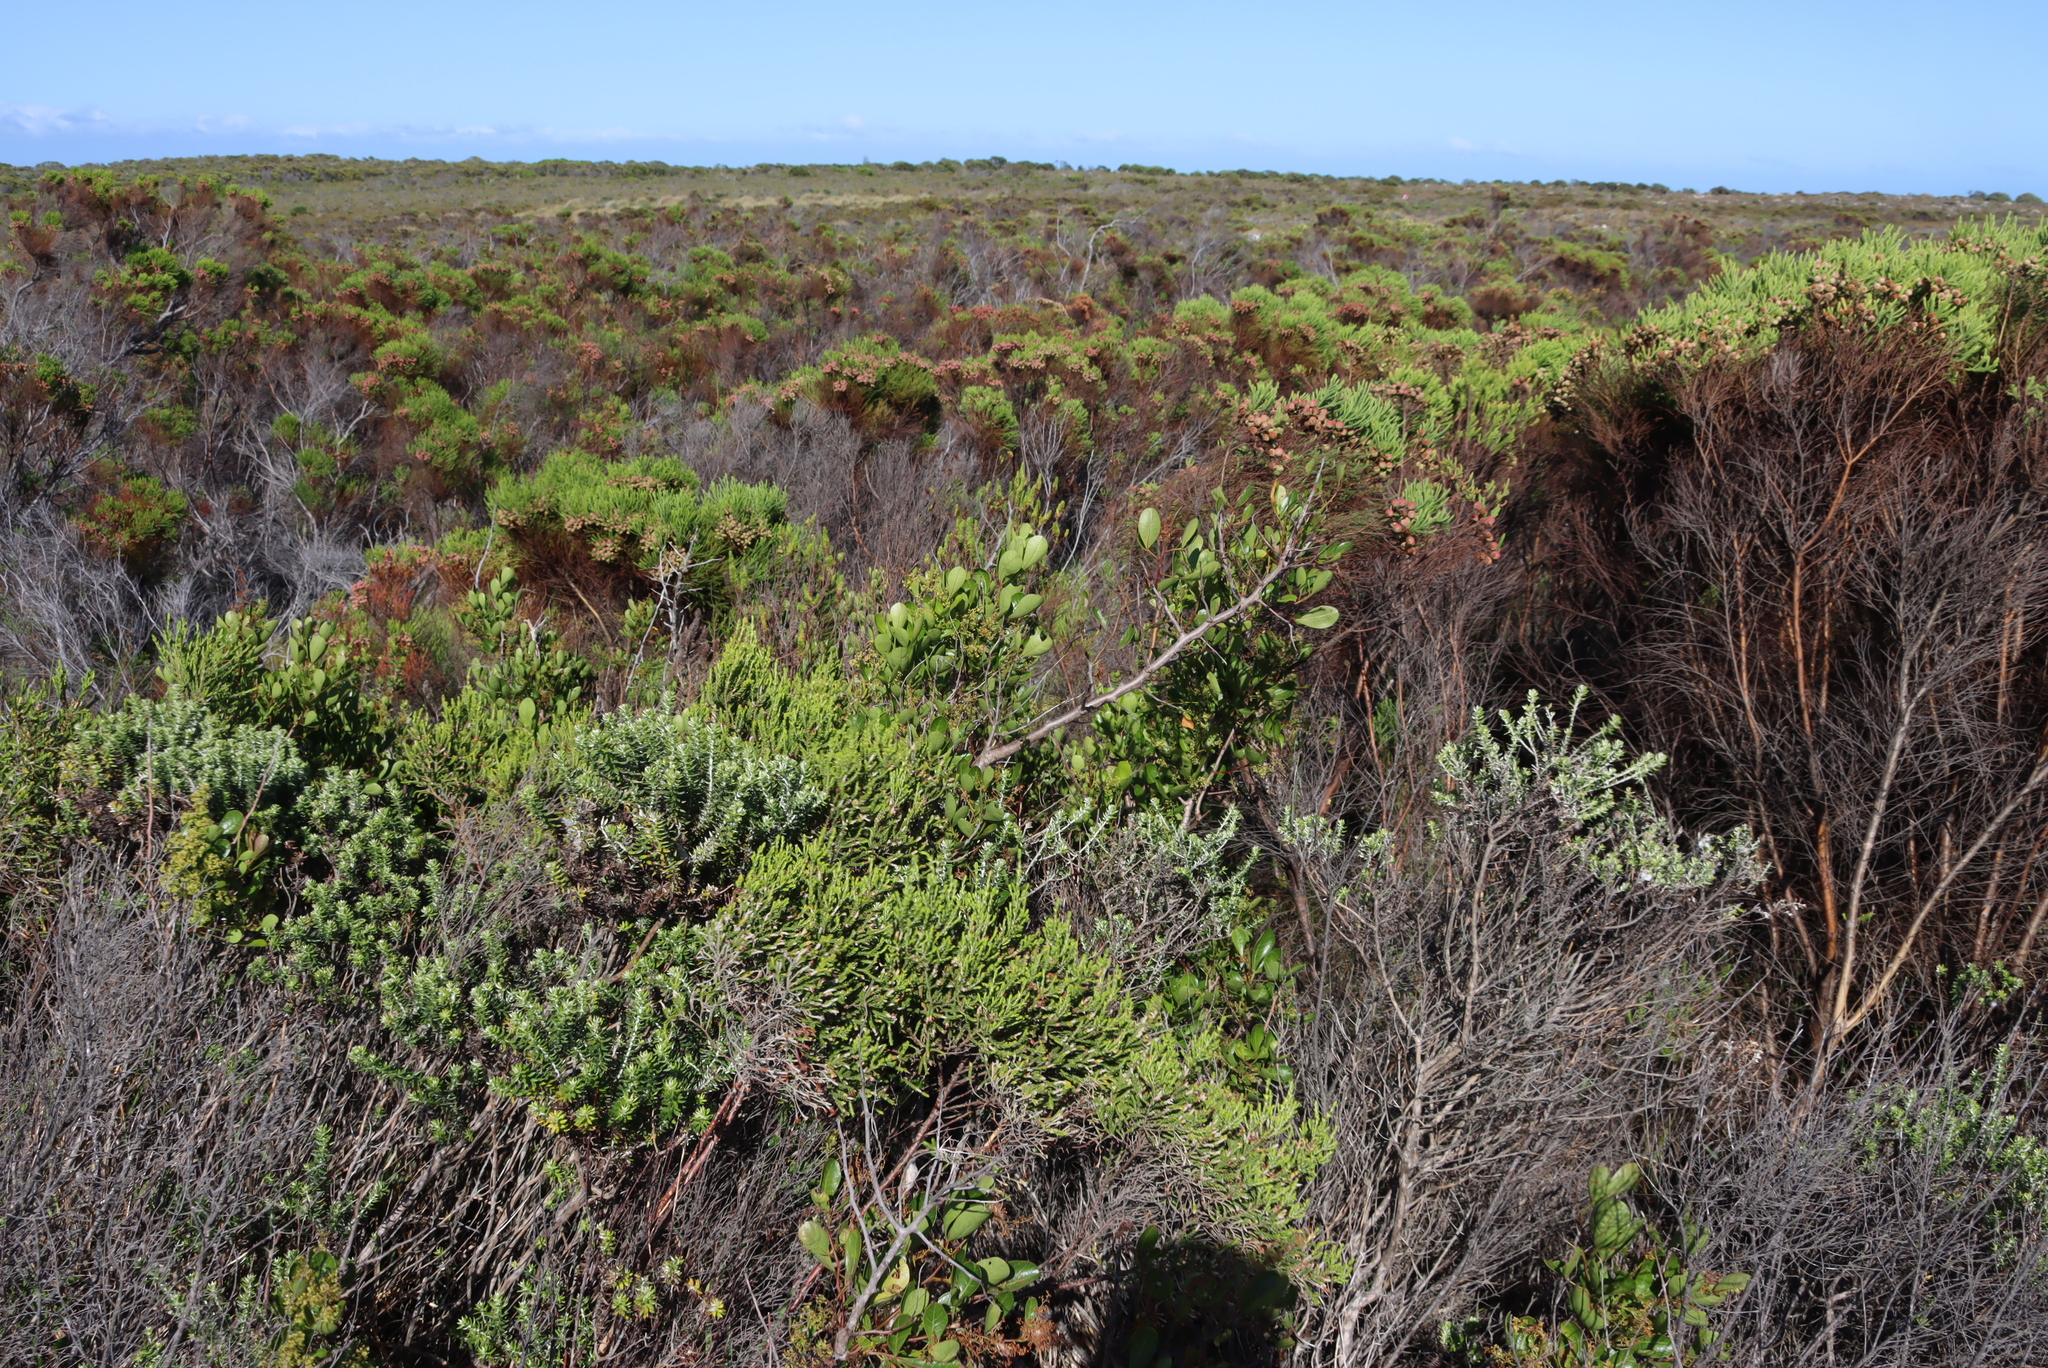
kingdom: Plantae
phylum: Tracheophyta
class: Magnoliopsida
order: Sapindales
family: Anacardiaceae
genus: Searsia
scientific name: Searsia laevigata
